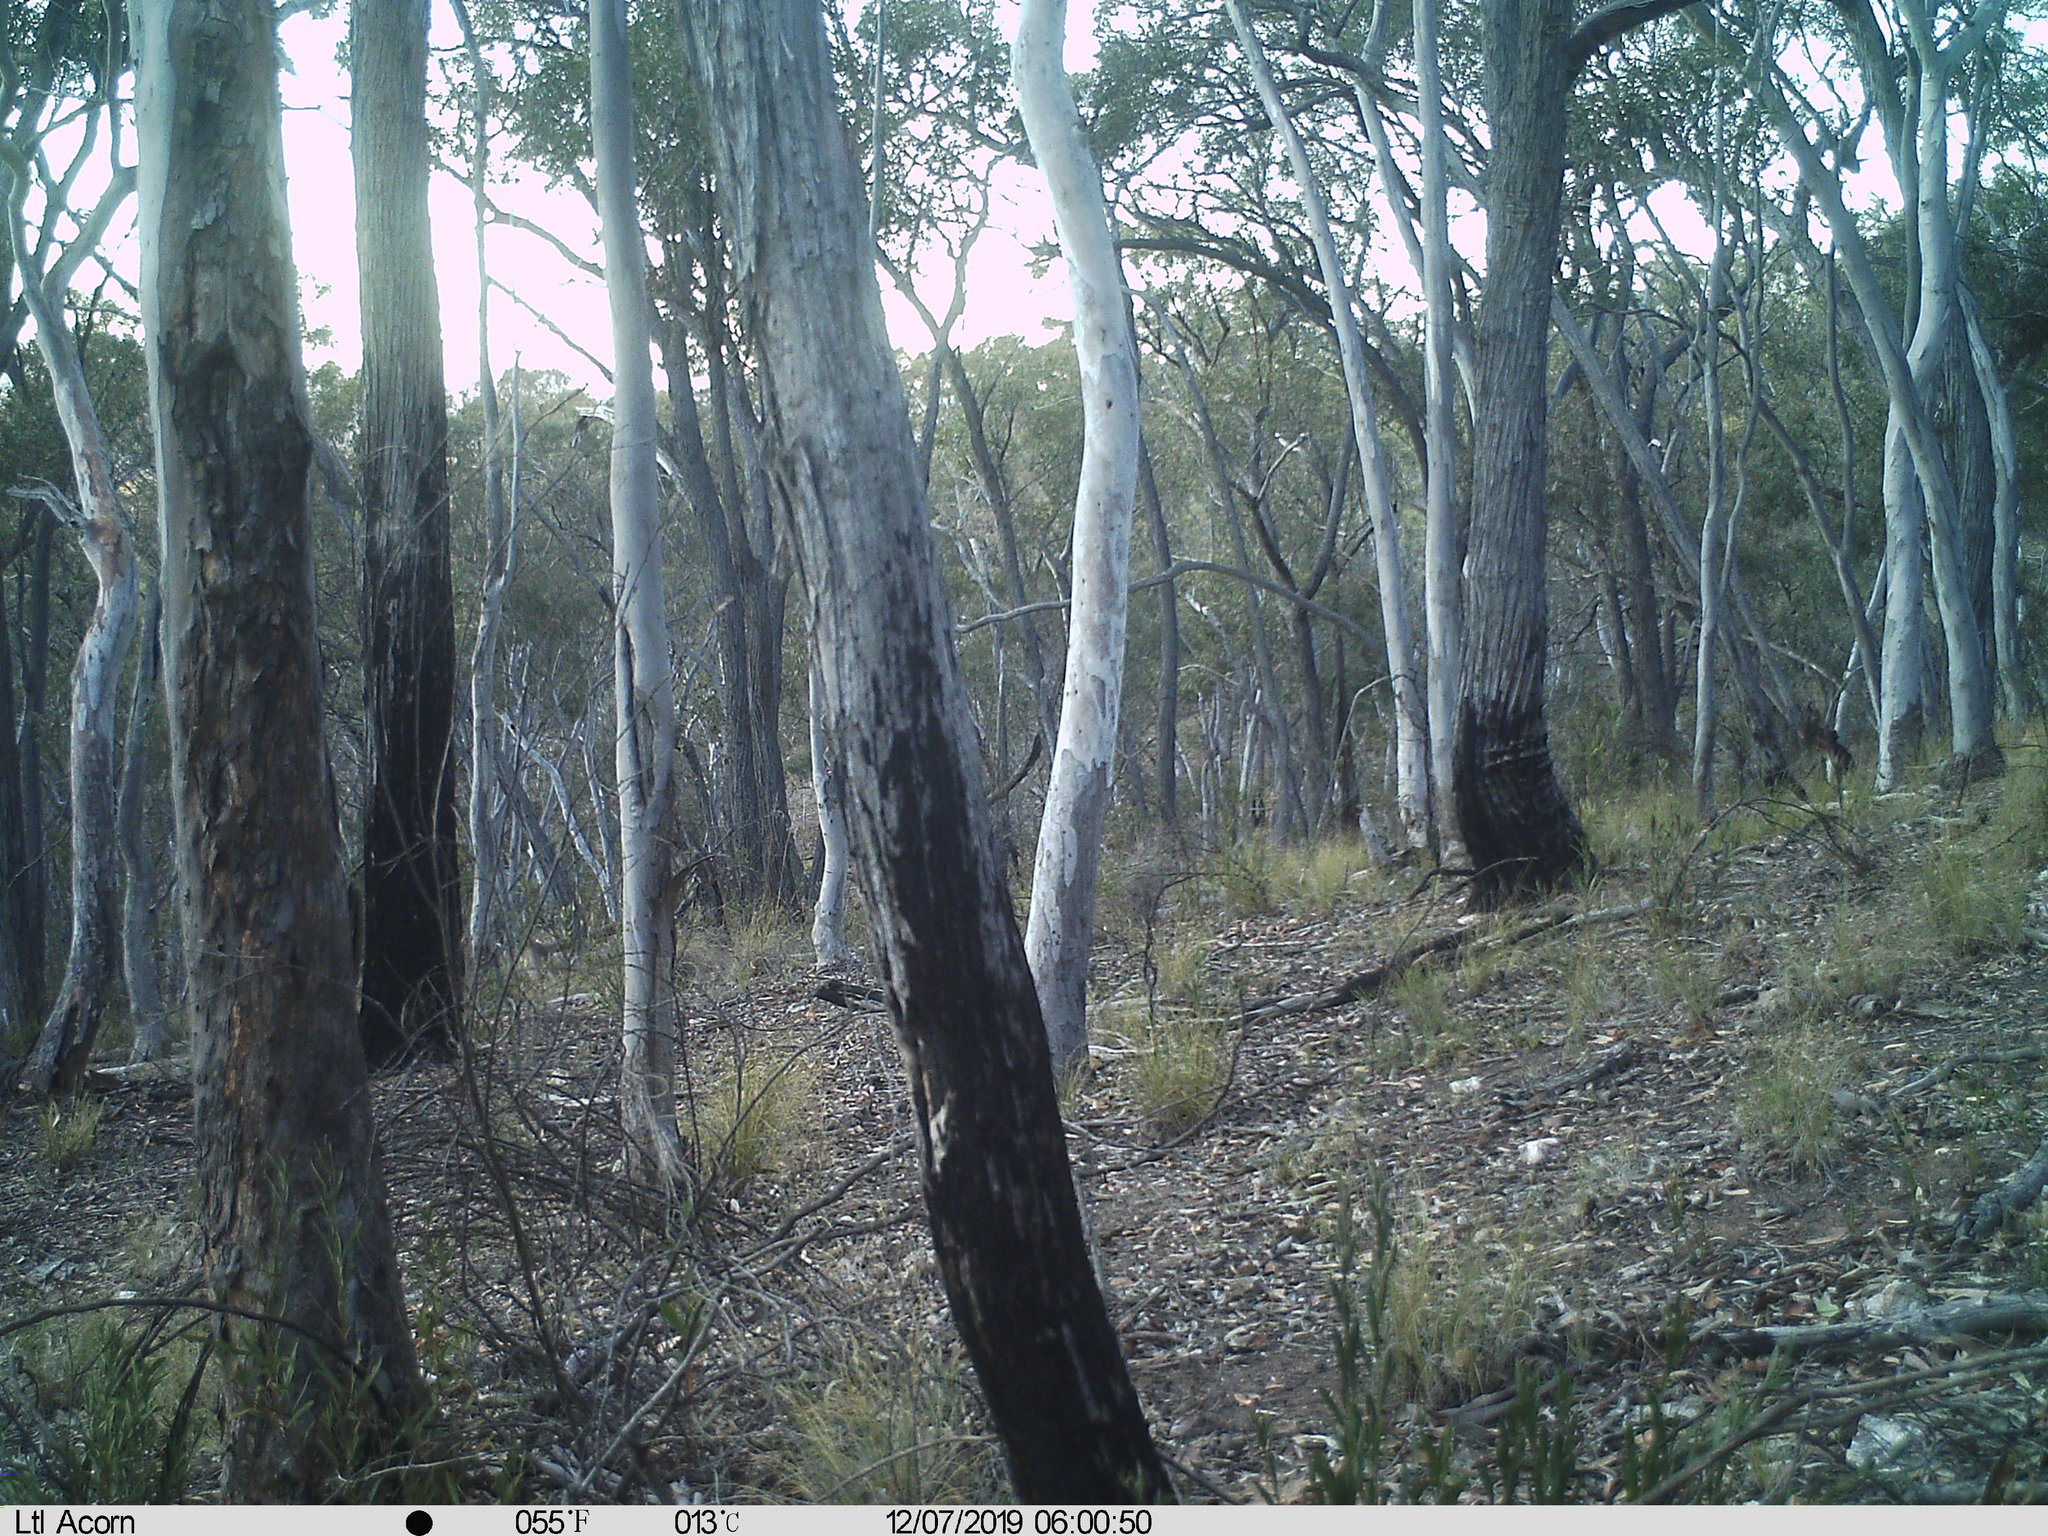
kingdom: Animalia
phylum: Chordata
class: Mammalia
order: Diprotodontia
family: Macropodidae
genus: Macropus
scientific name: Macropus giganteus
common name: Eastern grey kangaroo
